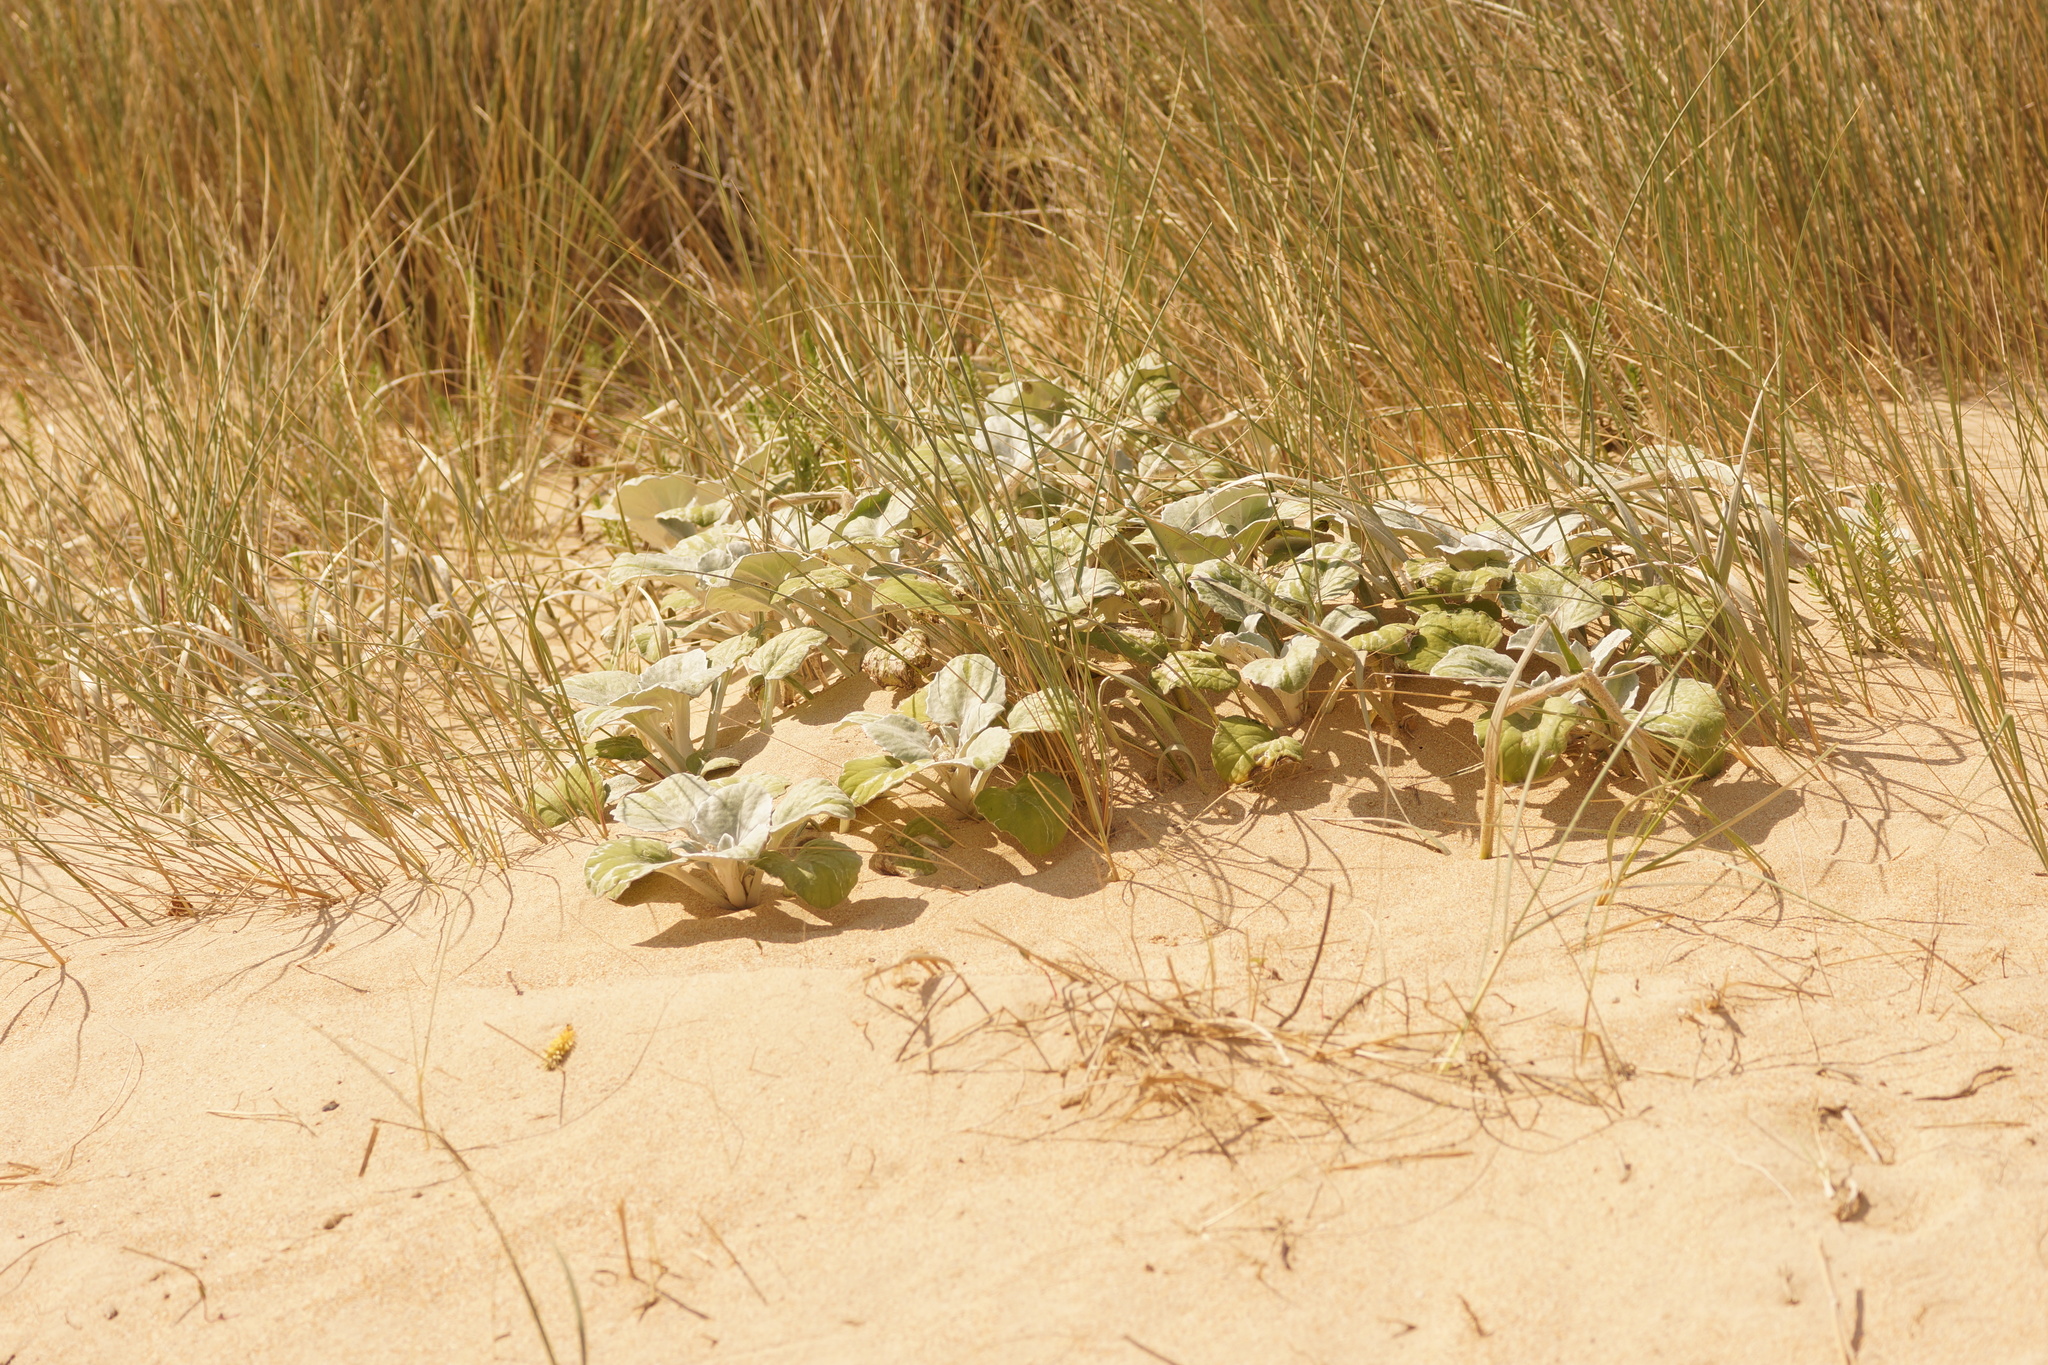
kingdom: Plantae
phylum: Tracheophyta
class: Magnoliopsida
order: Asterales
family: Asteraceae
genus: Arctotheca
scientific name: Arctotheca populifolia
